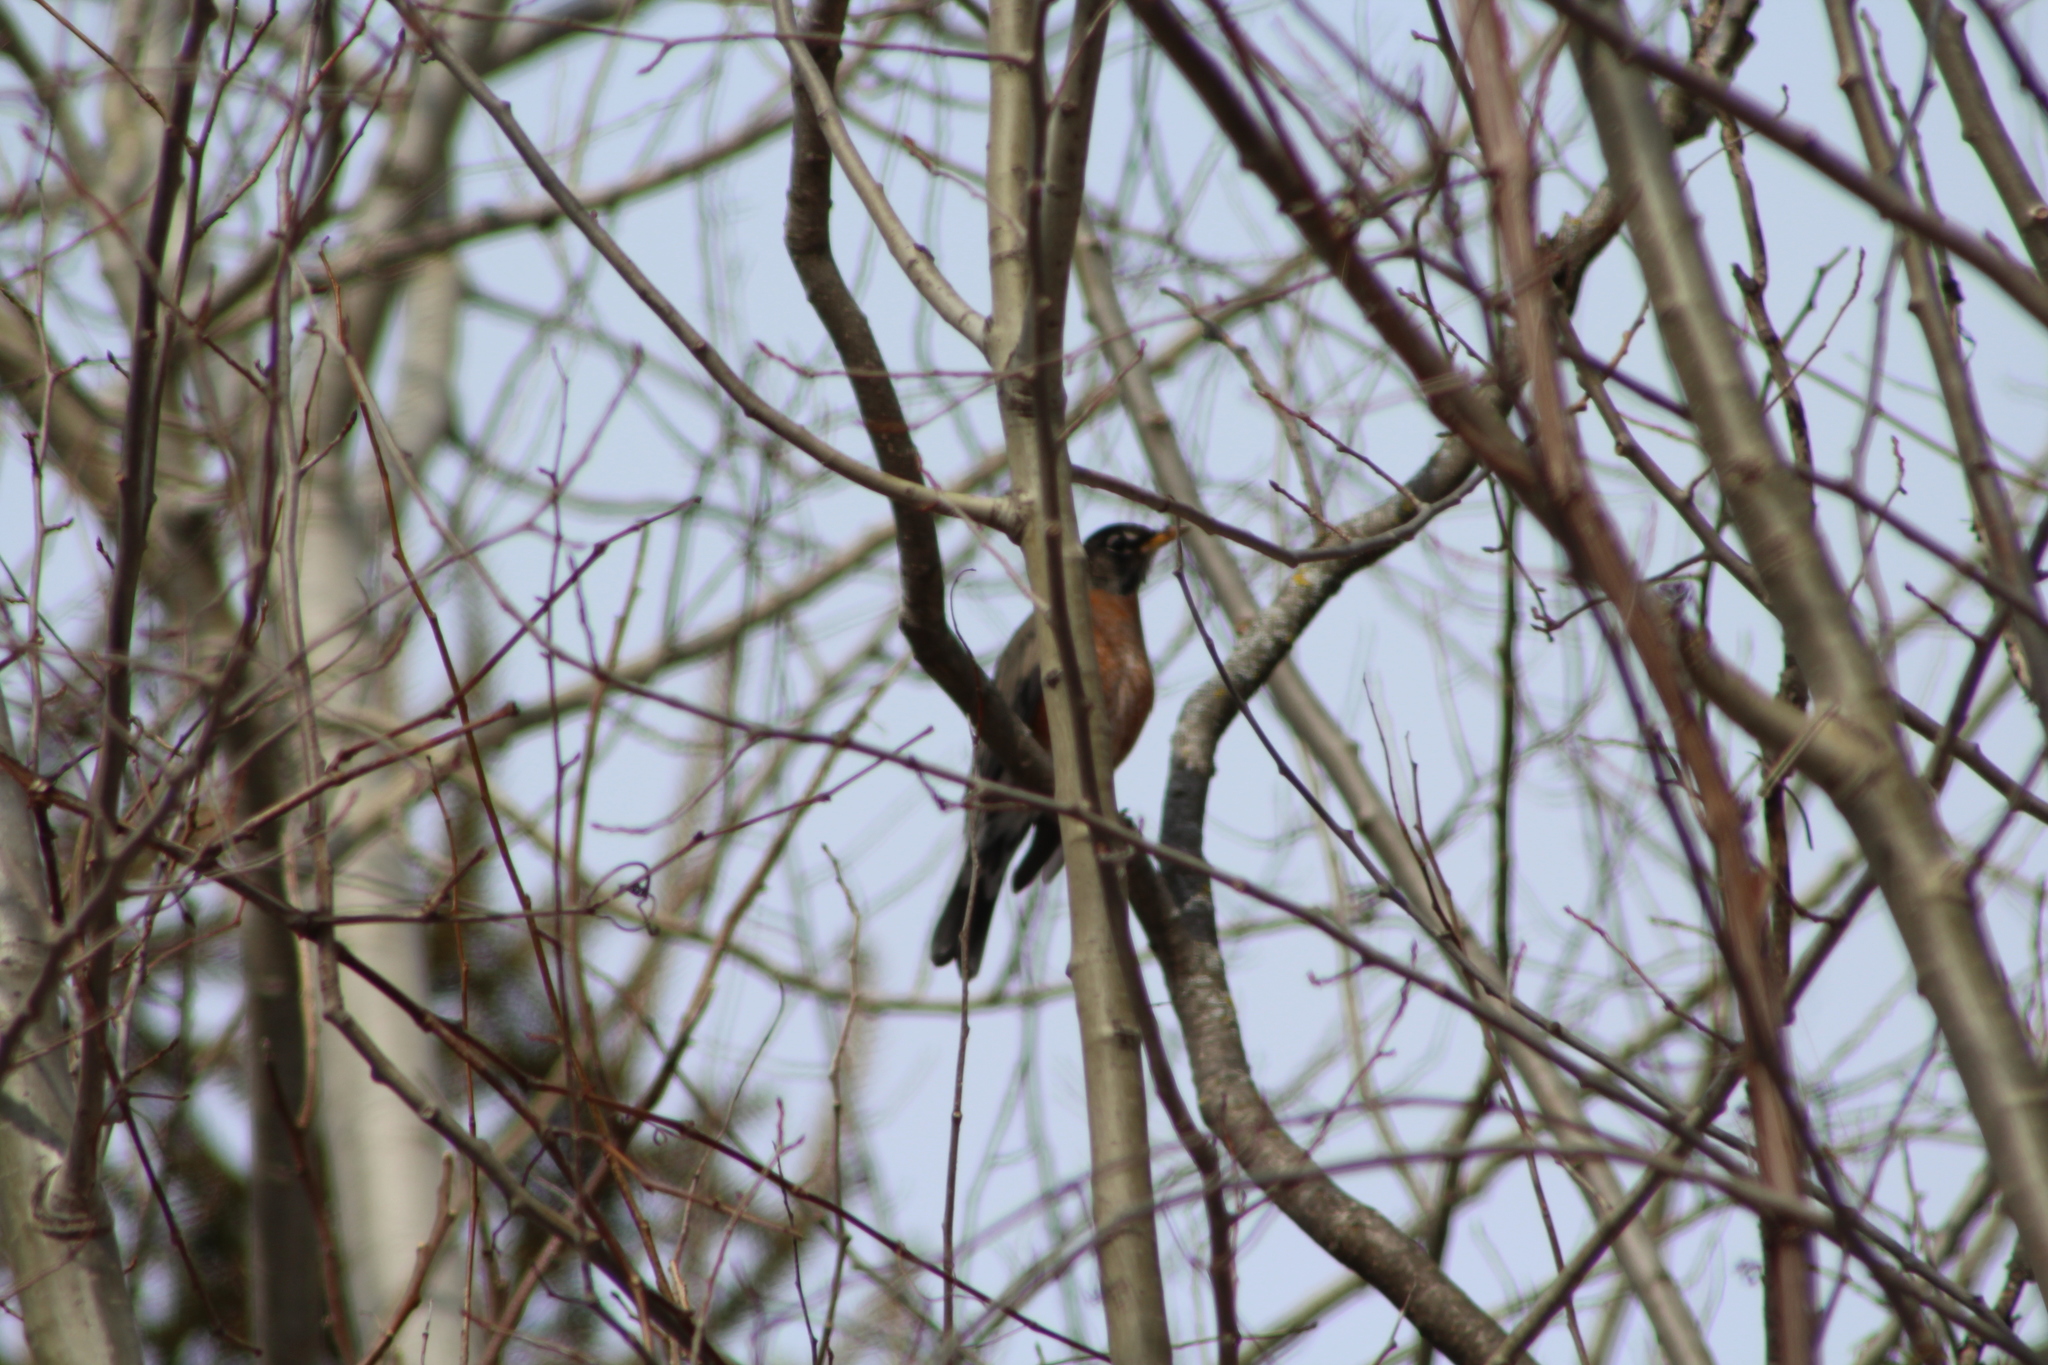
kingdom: Animalia
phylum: Chordata
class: Aves
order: Passeriformes
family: Turdidae
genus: Turdus
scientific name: Turdus migratorius
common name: American robin
